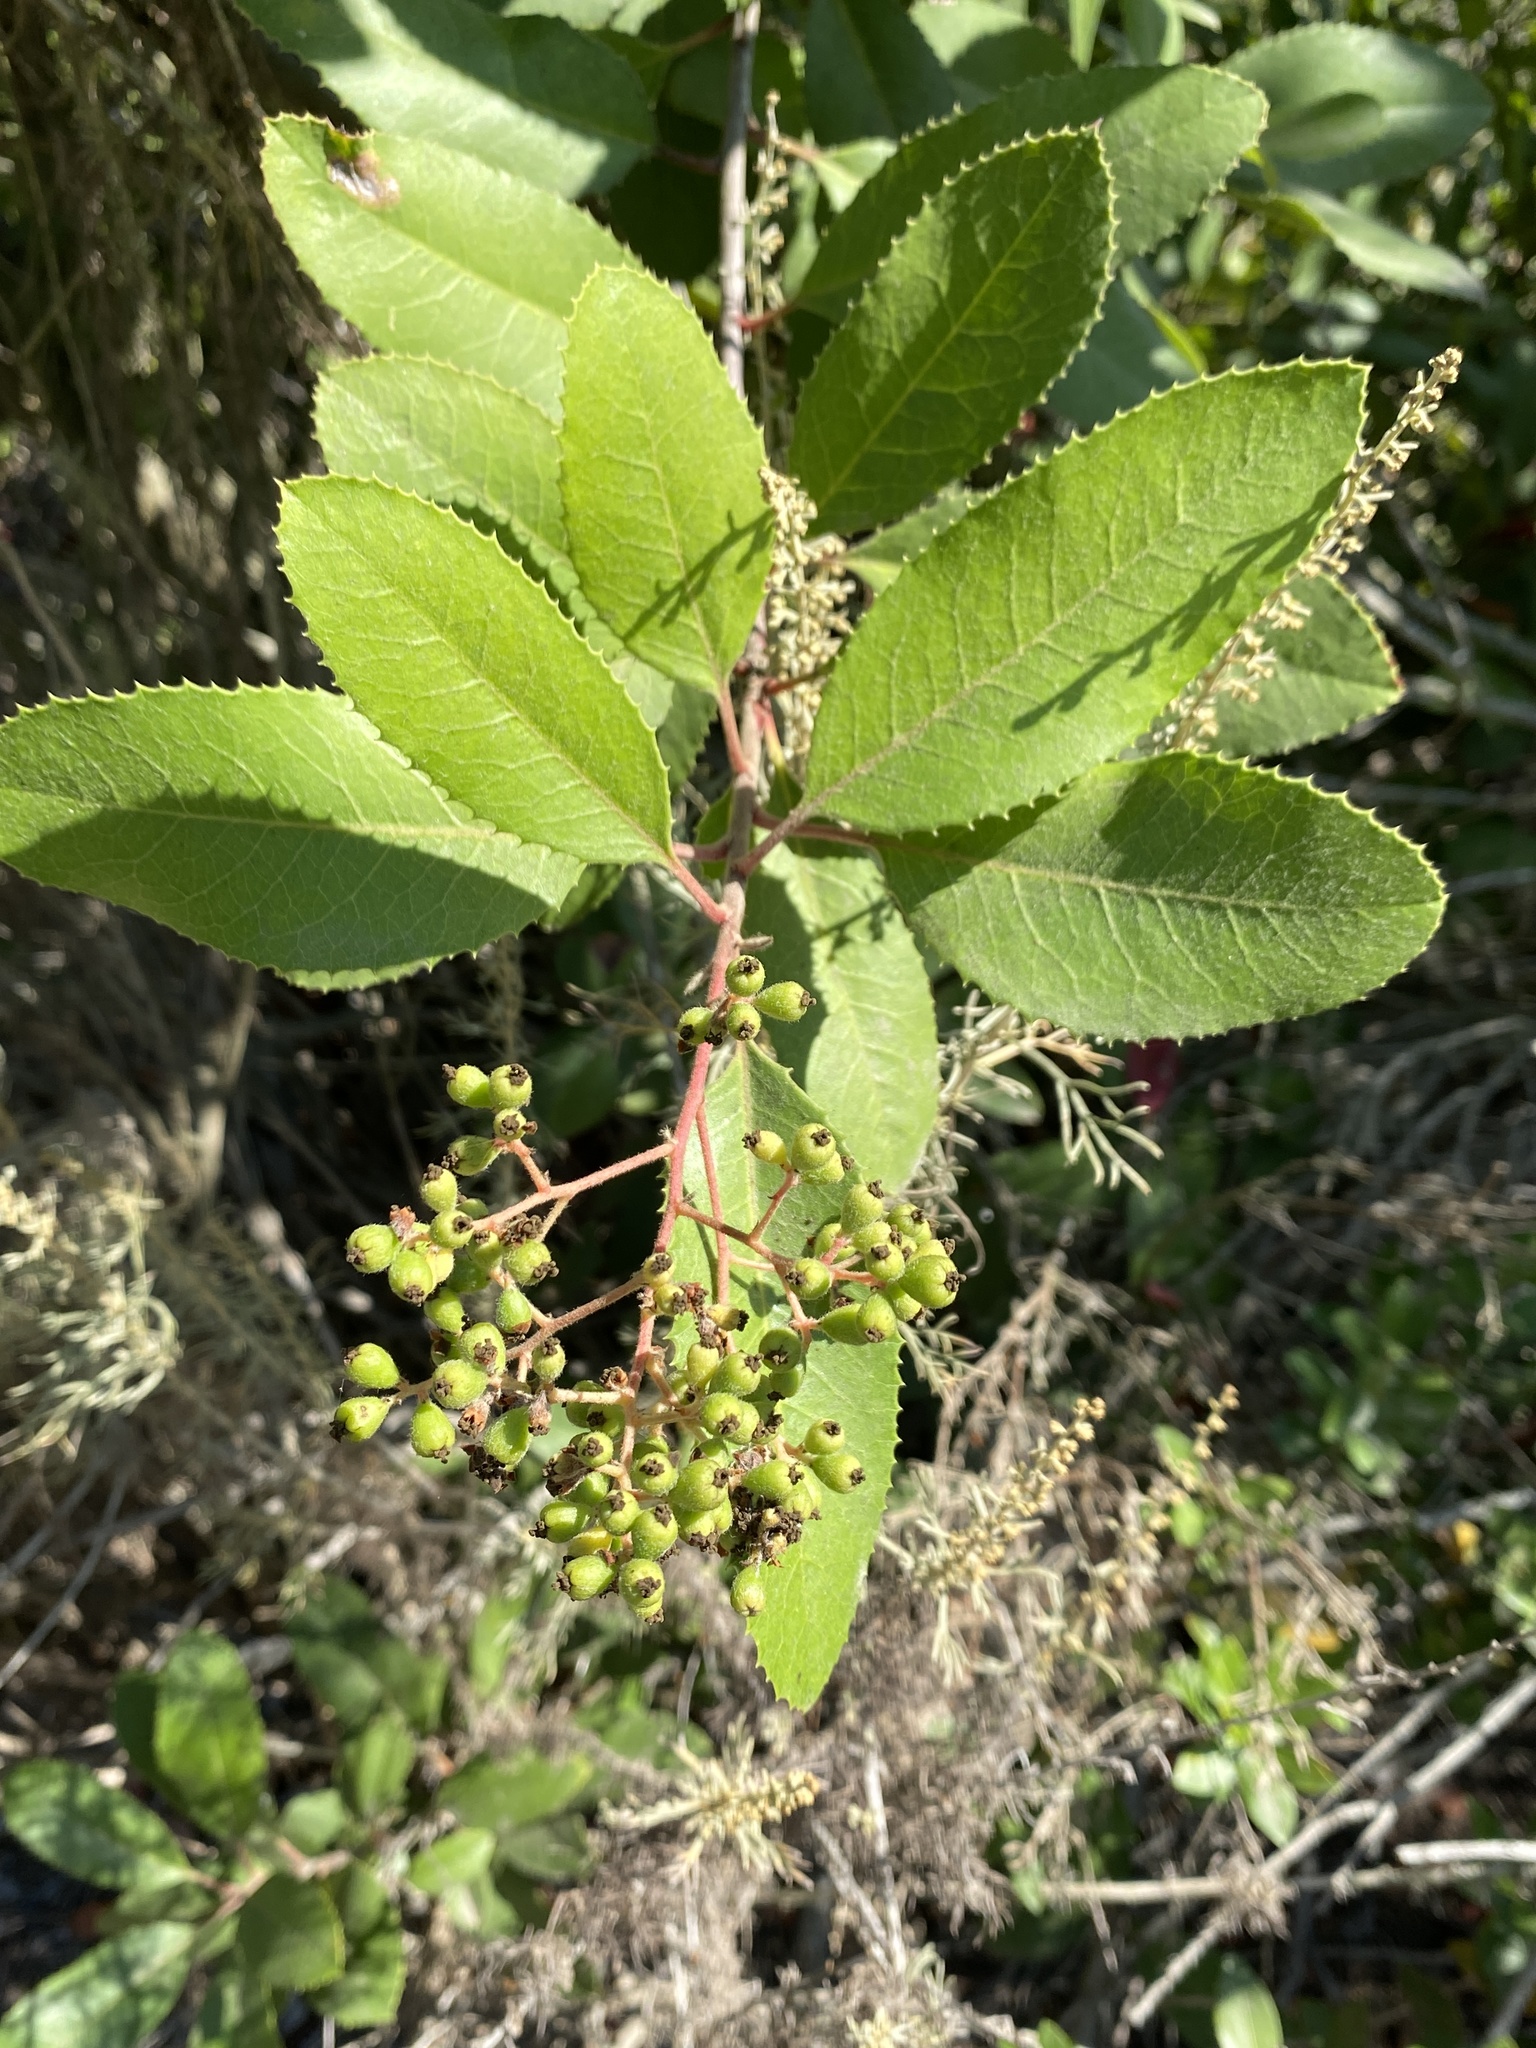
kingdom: Plantae
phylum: Tracheophyta
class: Magnoliopsida
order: Rosales
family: Rosaceae
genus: Heteromeles
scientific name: Heteromeles arbutifolia
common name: California-holly
